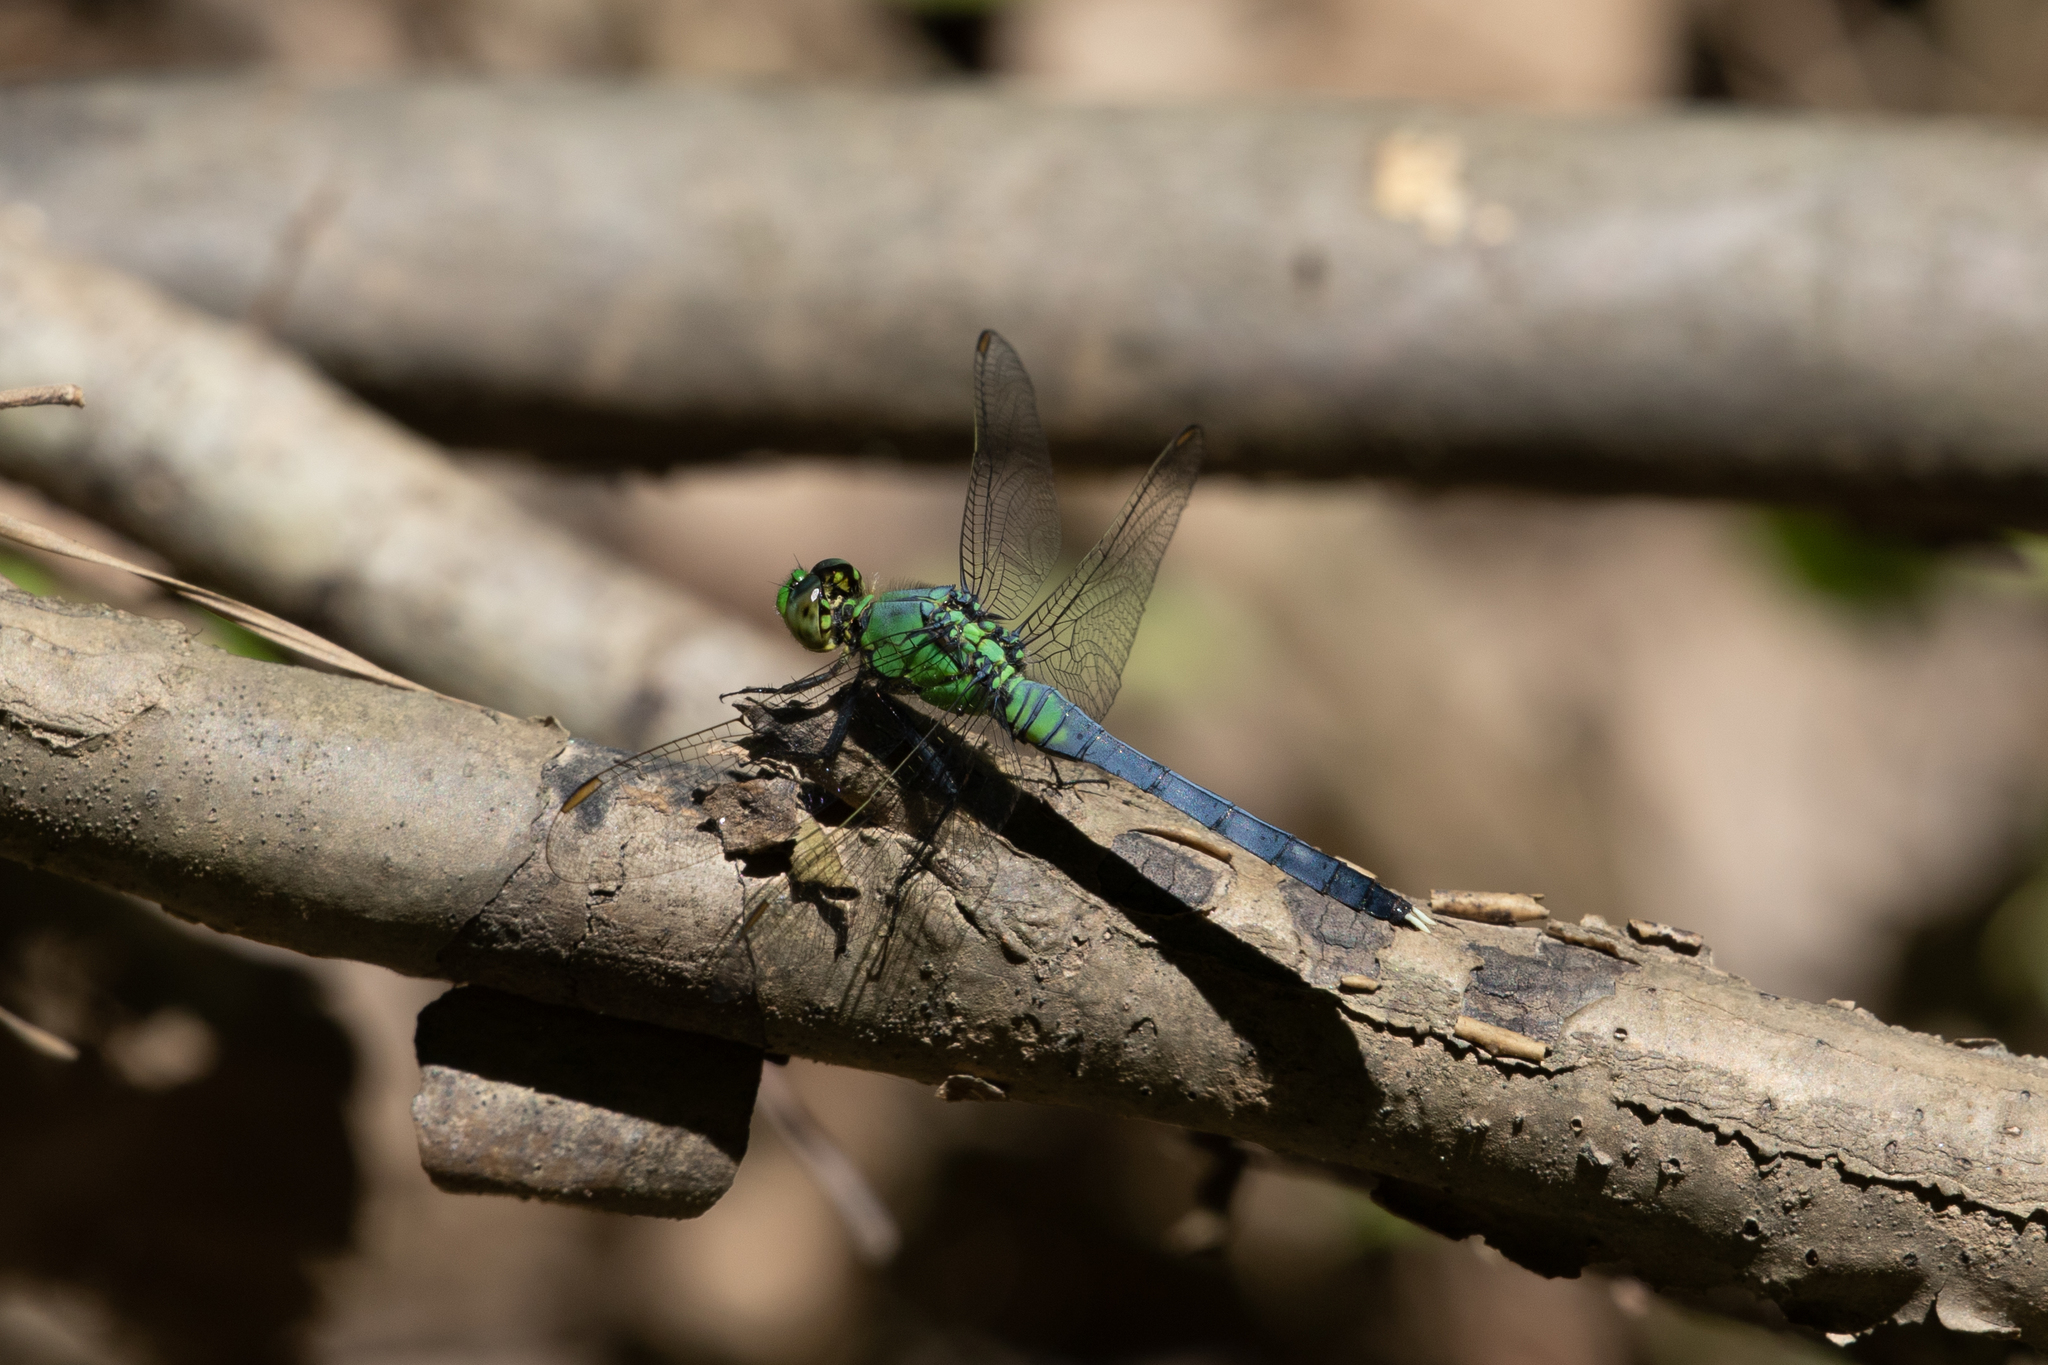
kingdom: Animalia
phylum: Arthropoda
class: Insecta
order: Odonata
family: Libellulidae
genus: Erythemis
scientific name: Erythemis simplicicollis
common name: Eastern pondhawk
